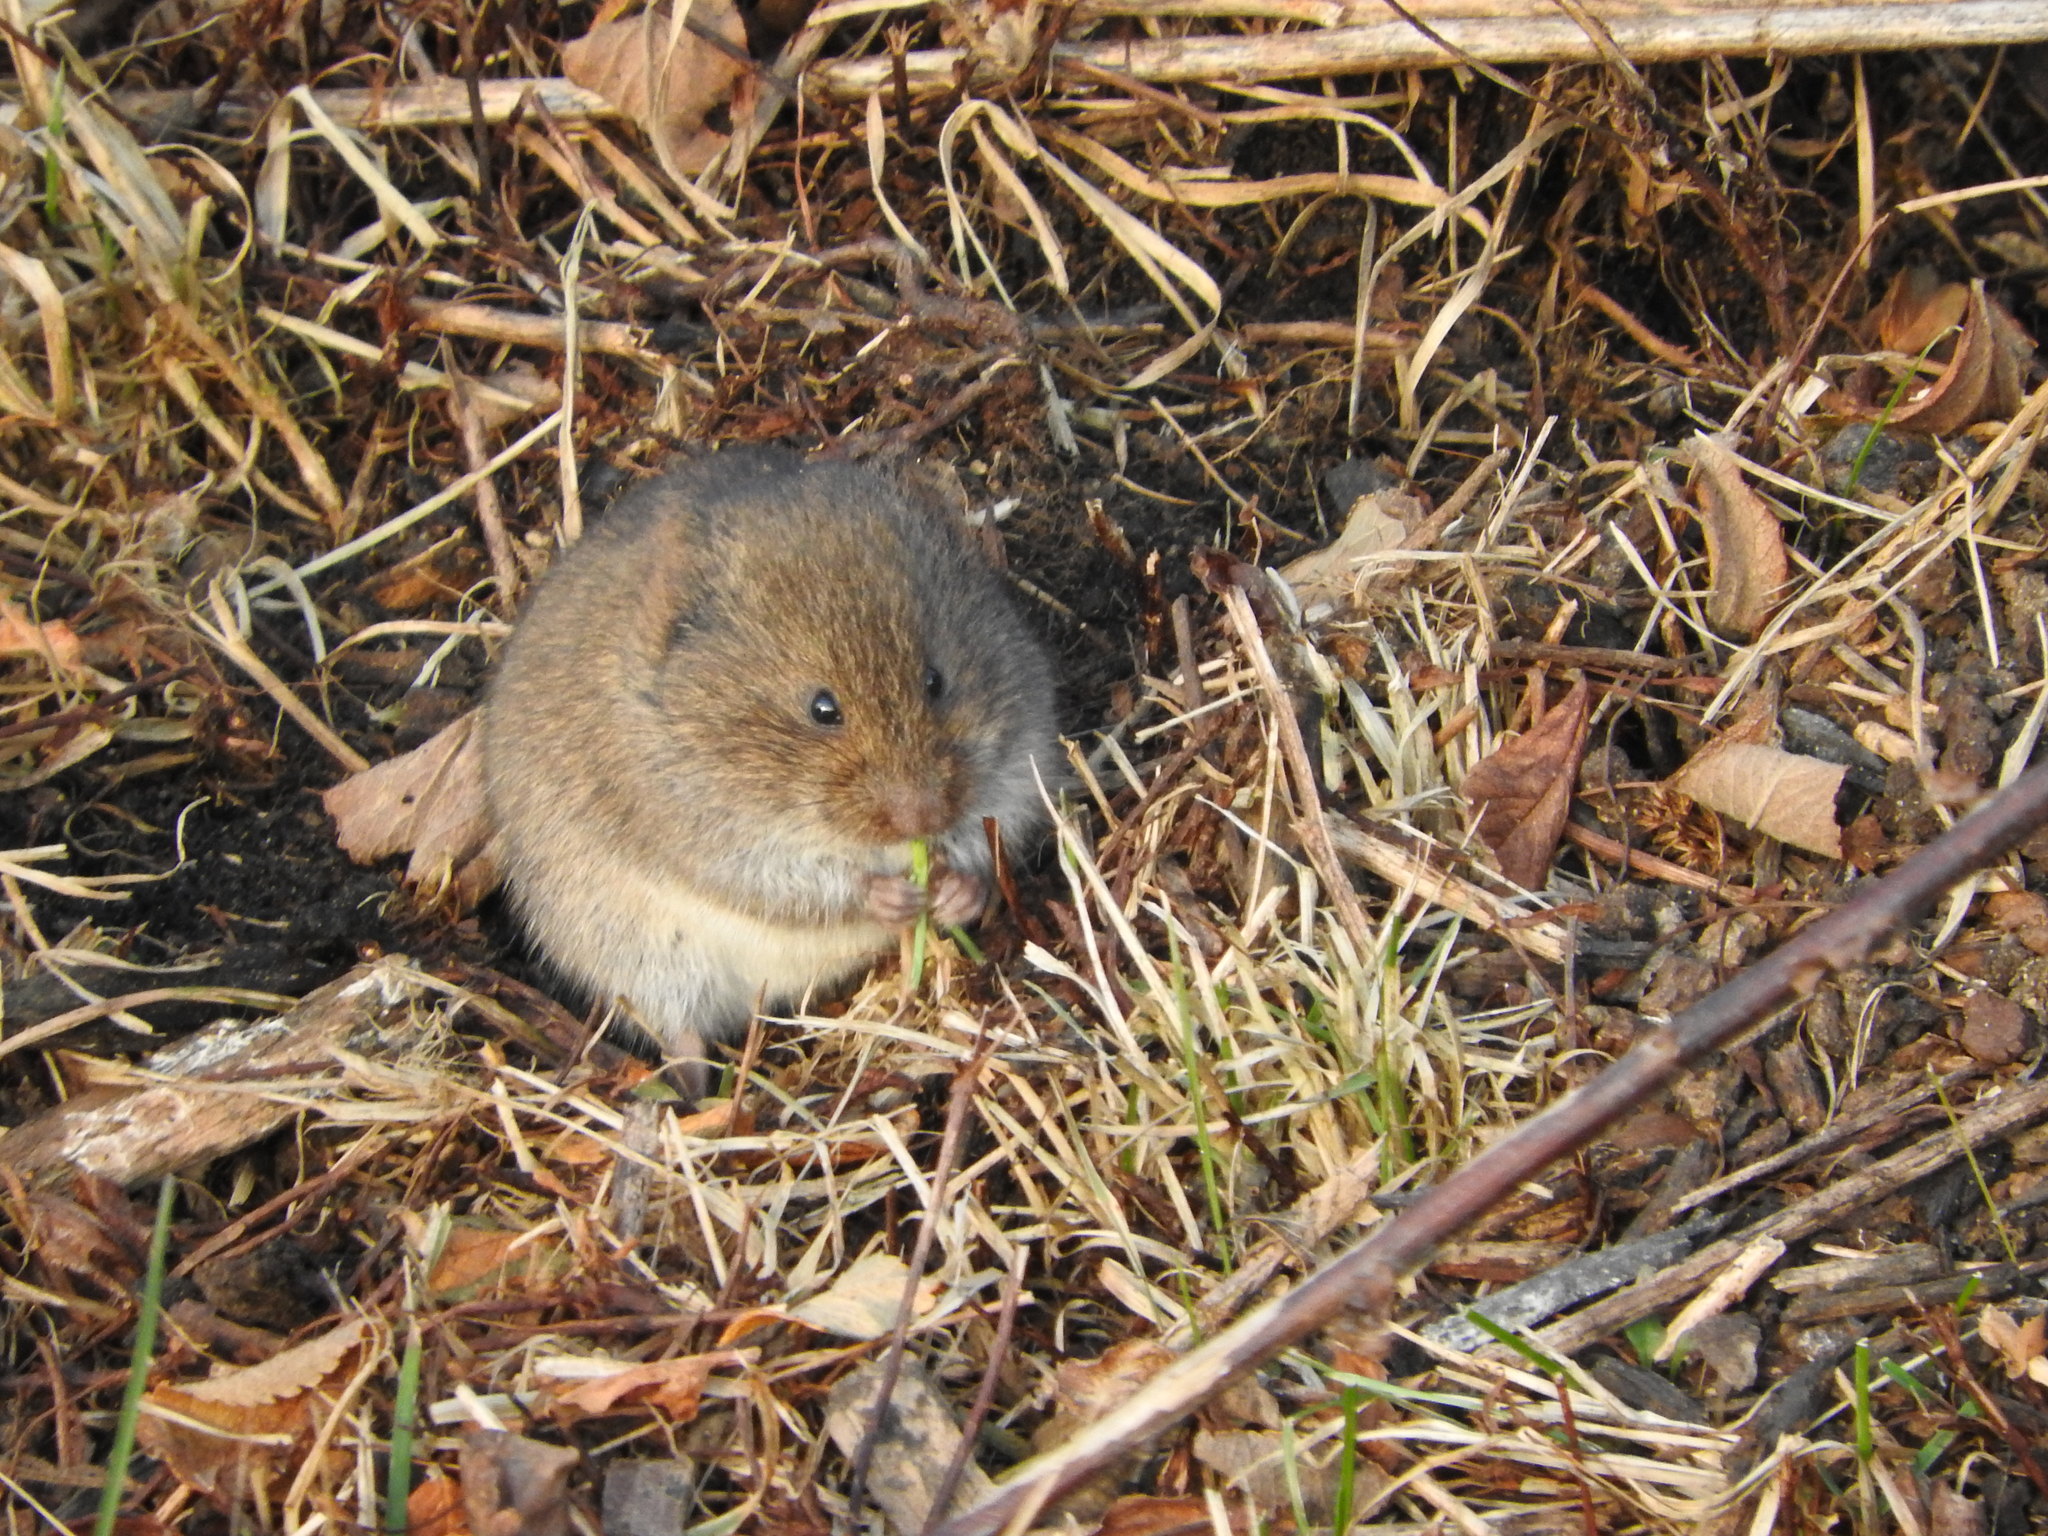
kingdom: Animalia
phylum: Chordata
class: Mammalia
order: Rodentia
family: Cricetidae
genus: Microtus
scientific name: Microtus pennsylvanicus
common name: Meadow vole
